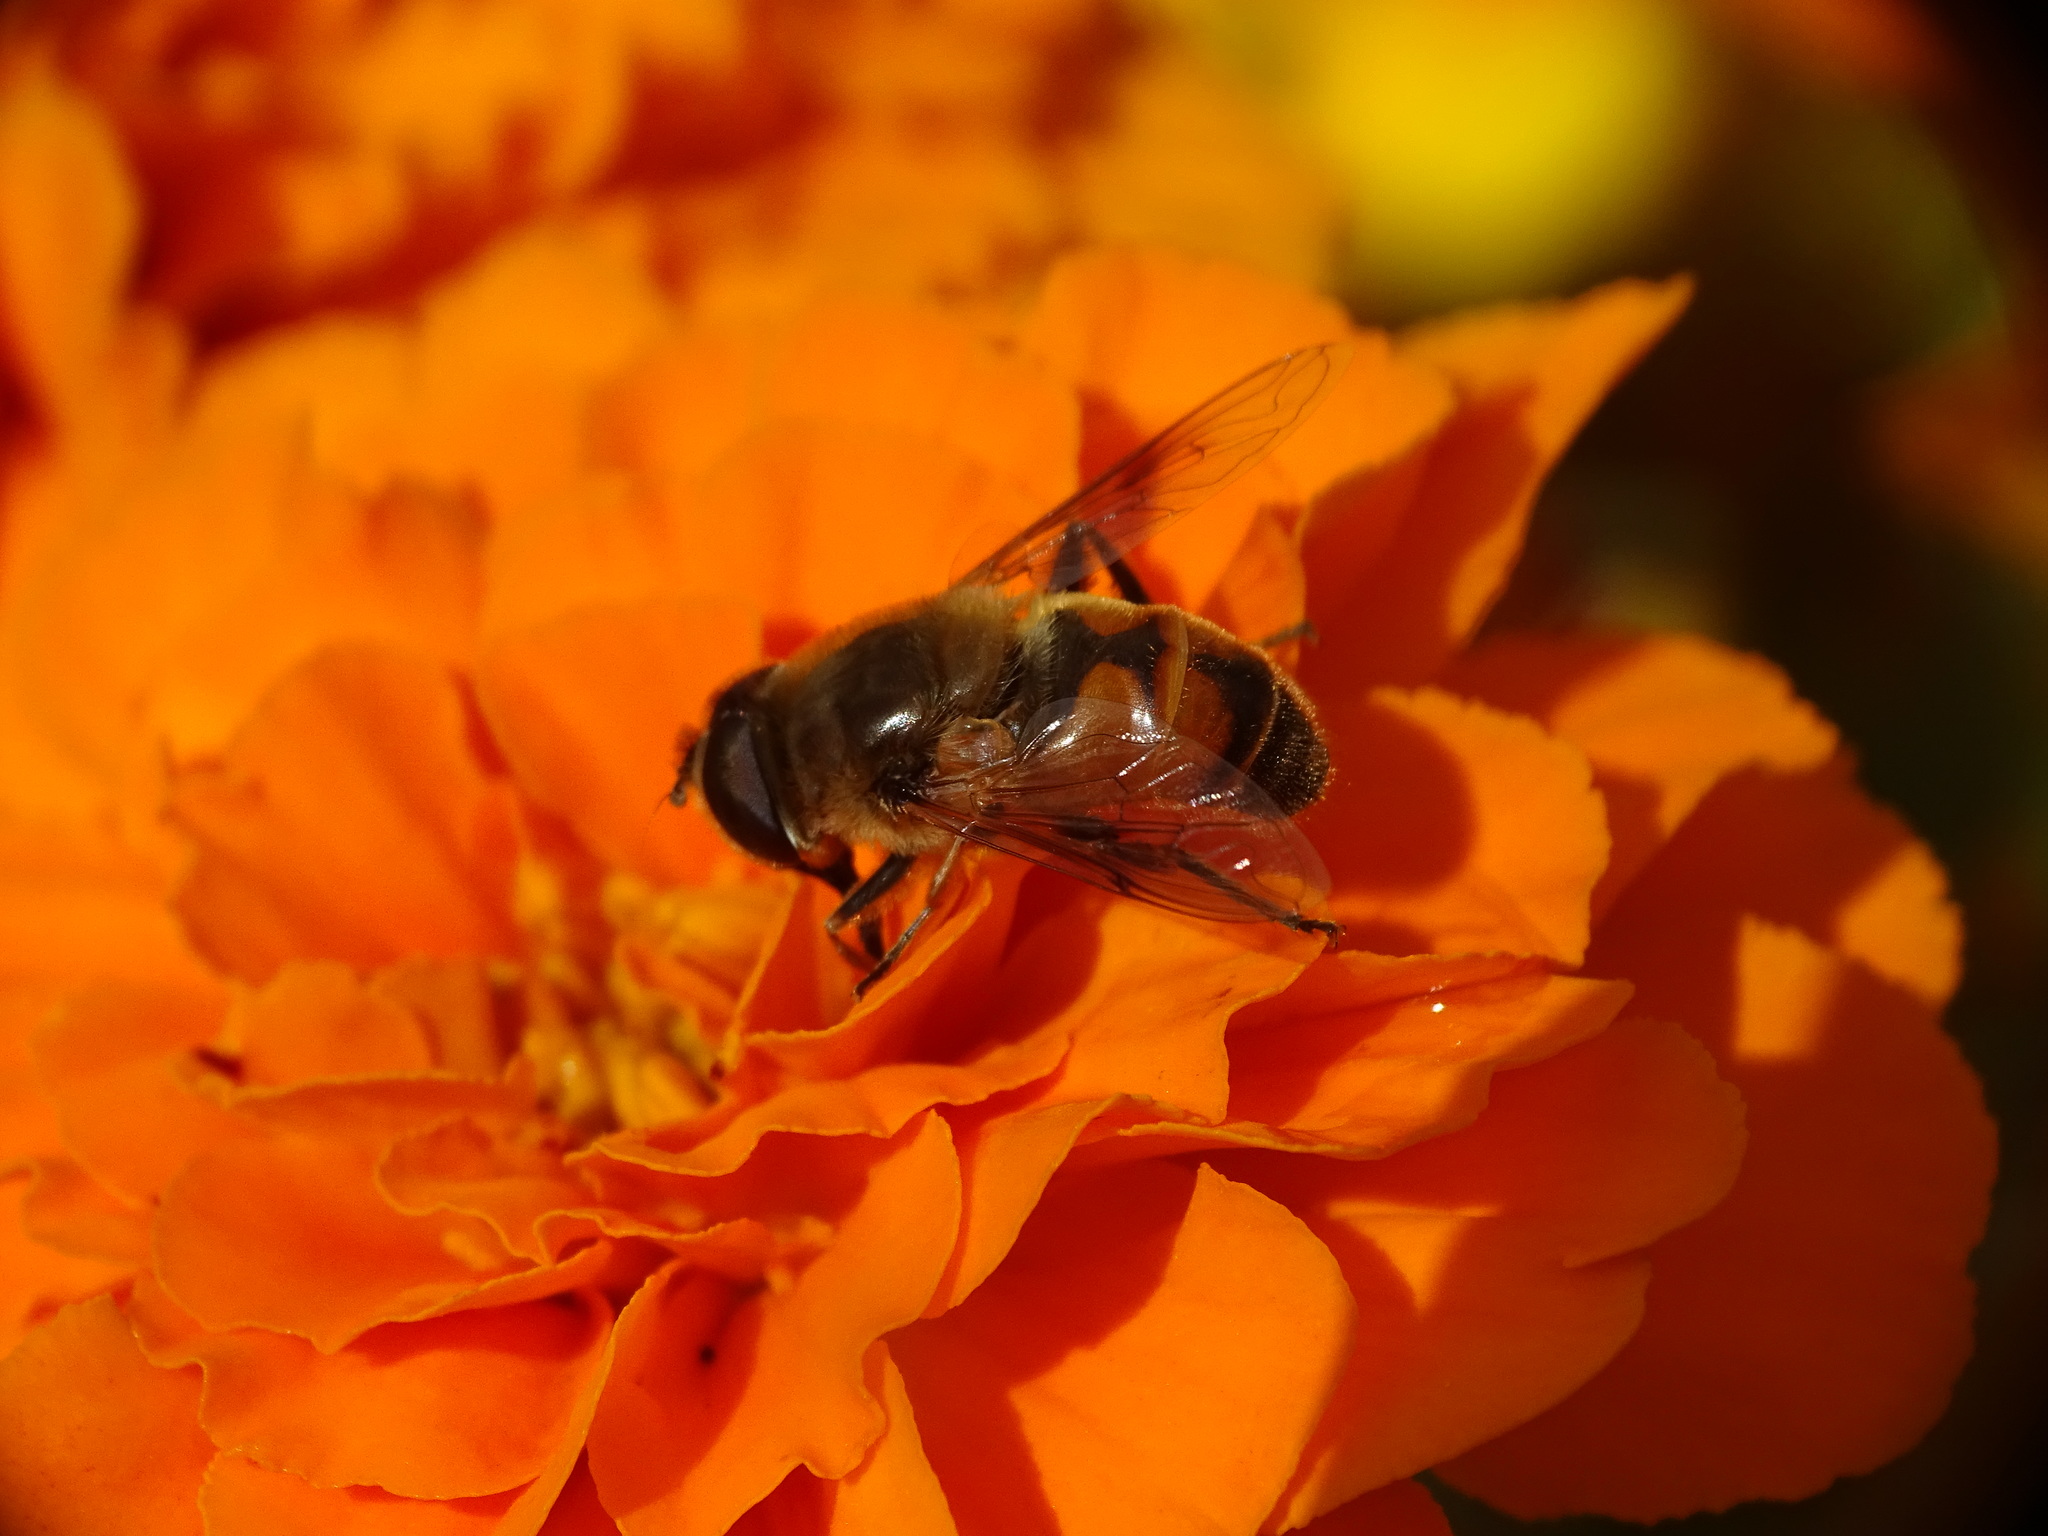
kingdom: Animalia
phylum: Arthropoda
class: Insecta
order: Diptera
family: Syrphidae
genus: Eristalis
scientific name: Eristalis tenax
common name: Drone fly
